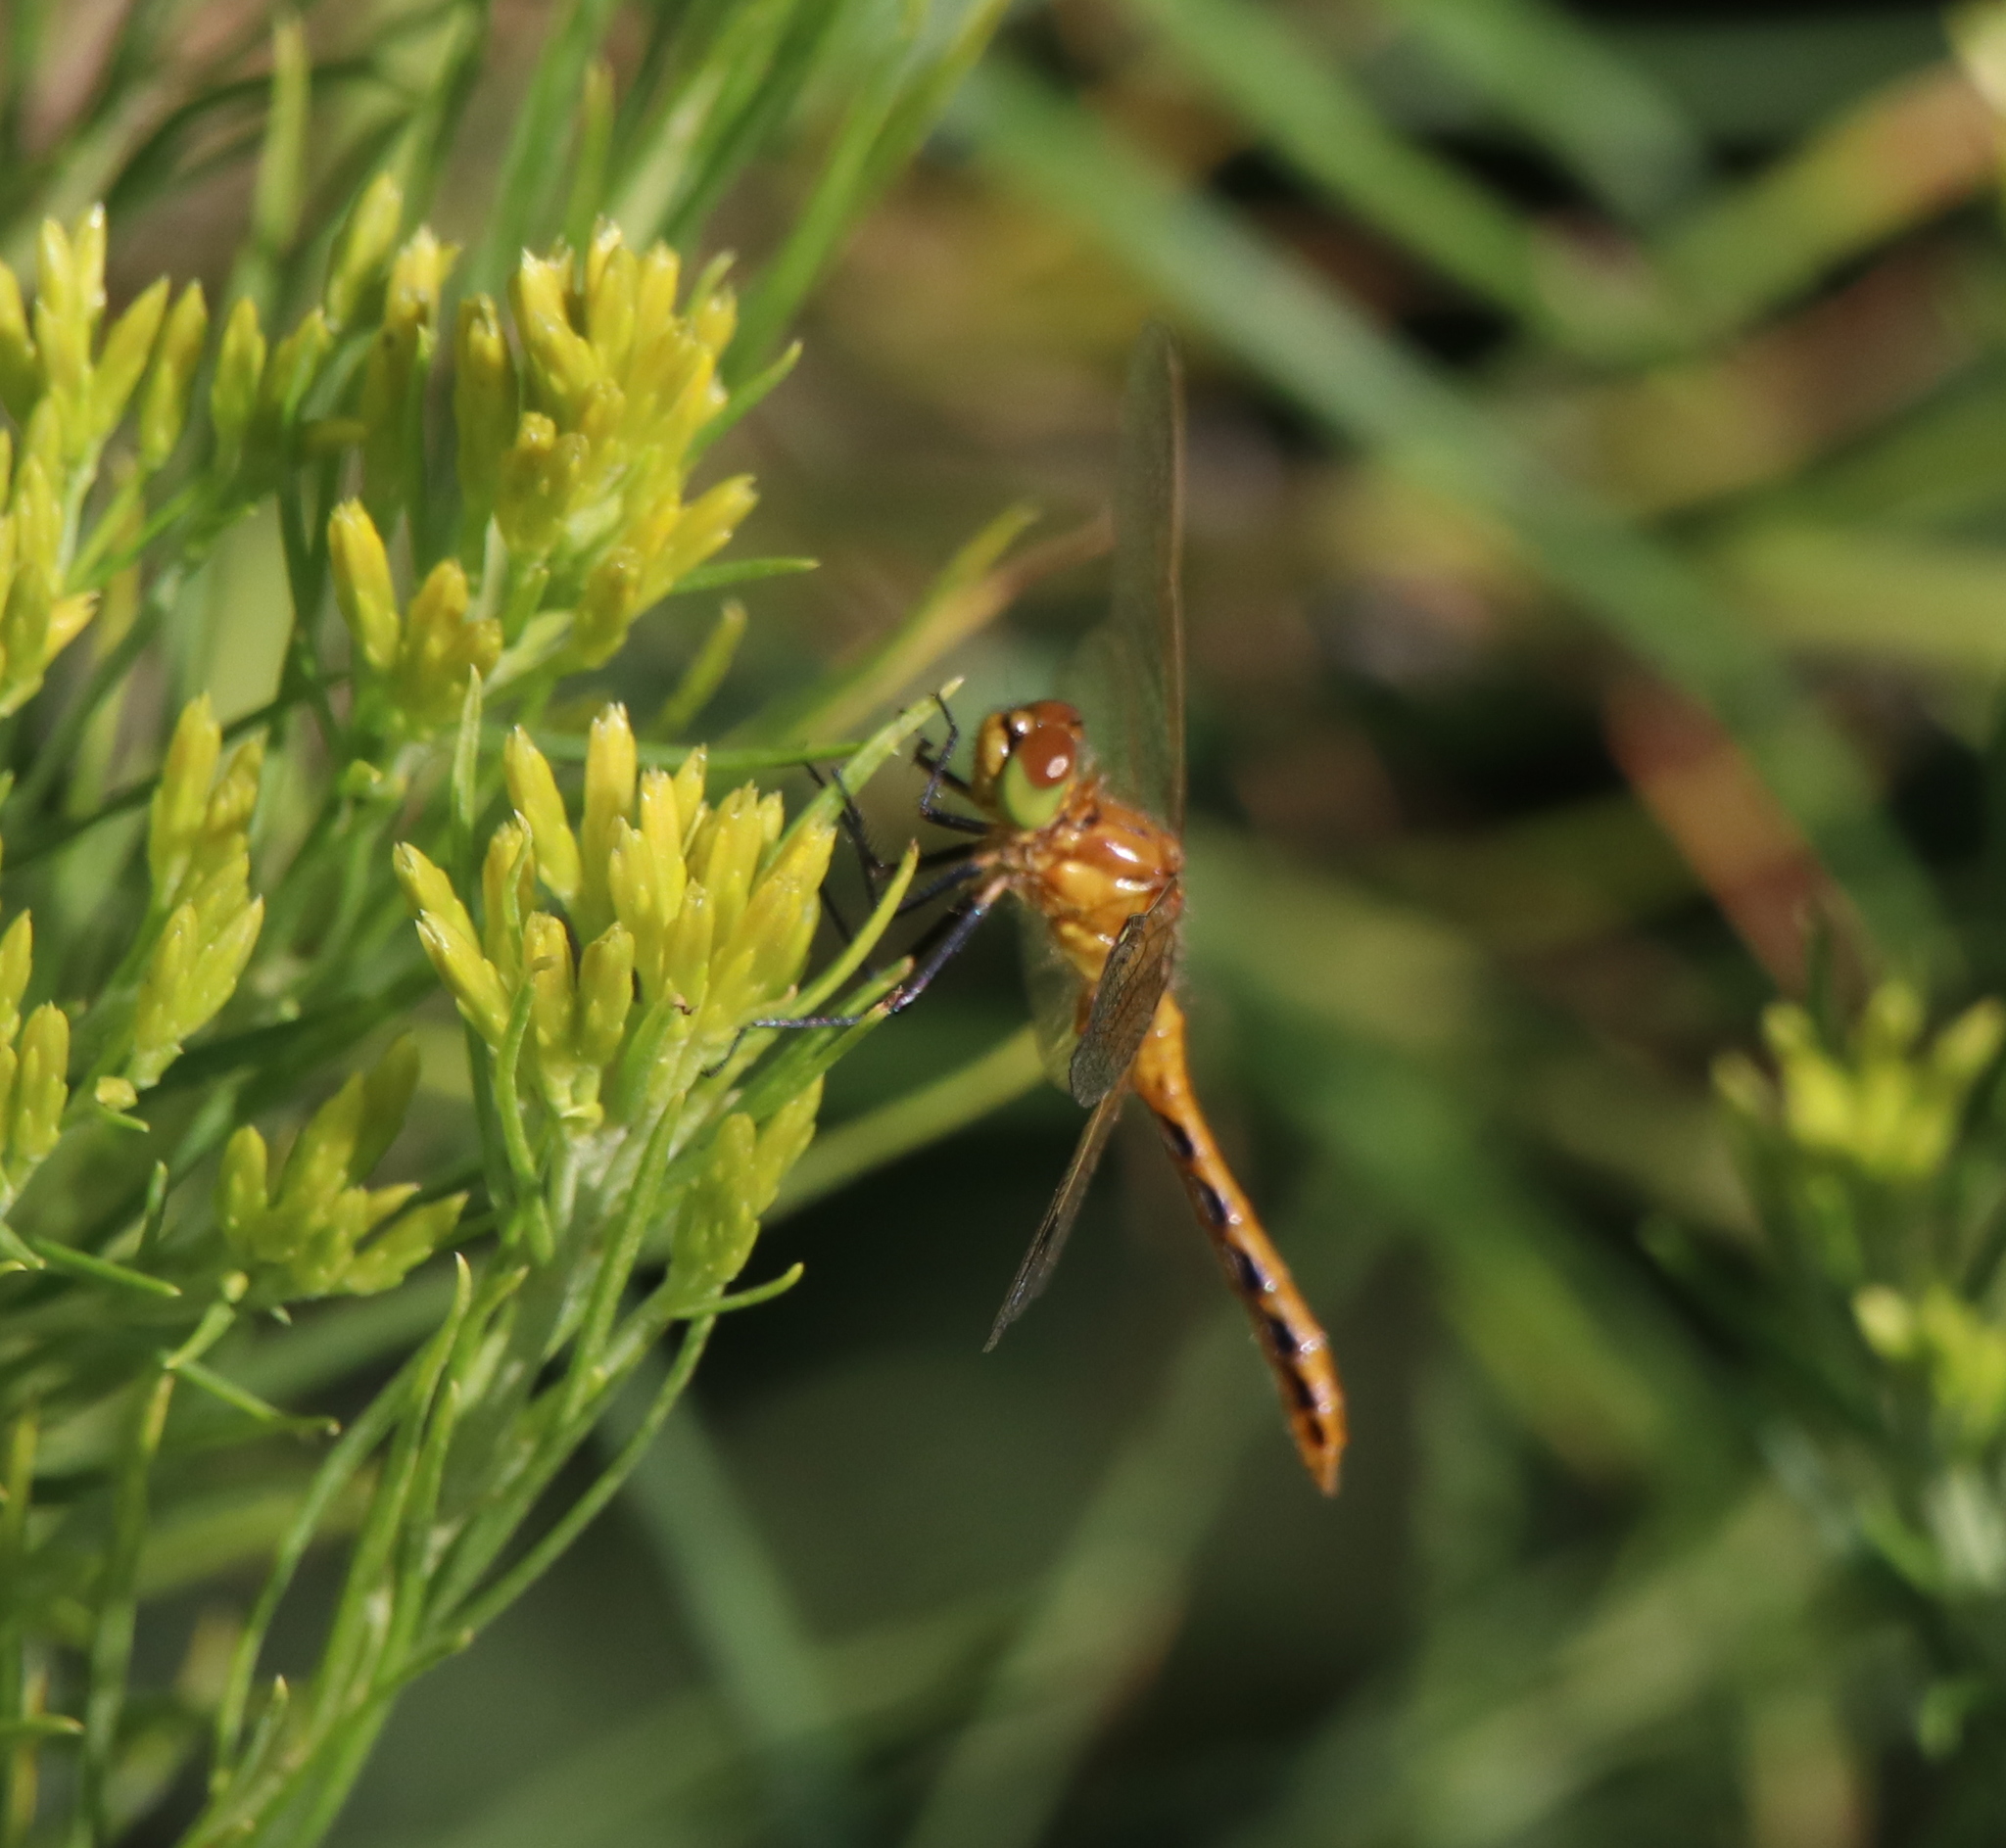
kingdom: Animalia
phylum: Arthropoda
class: Insecta
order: Odonata
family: Libellulidae
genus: Sympetrum
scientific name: Sympetrum costiferum
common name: Saffron-winged meadowhawk
